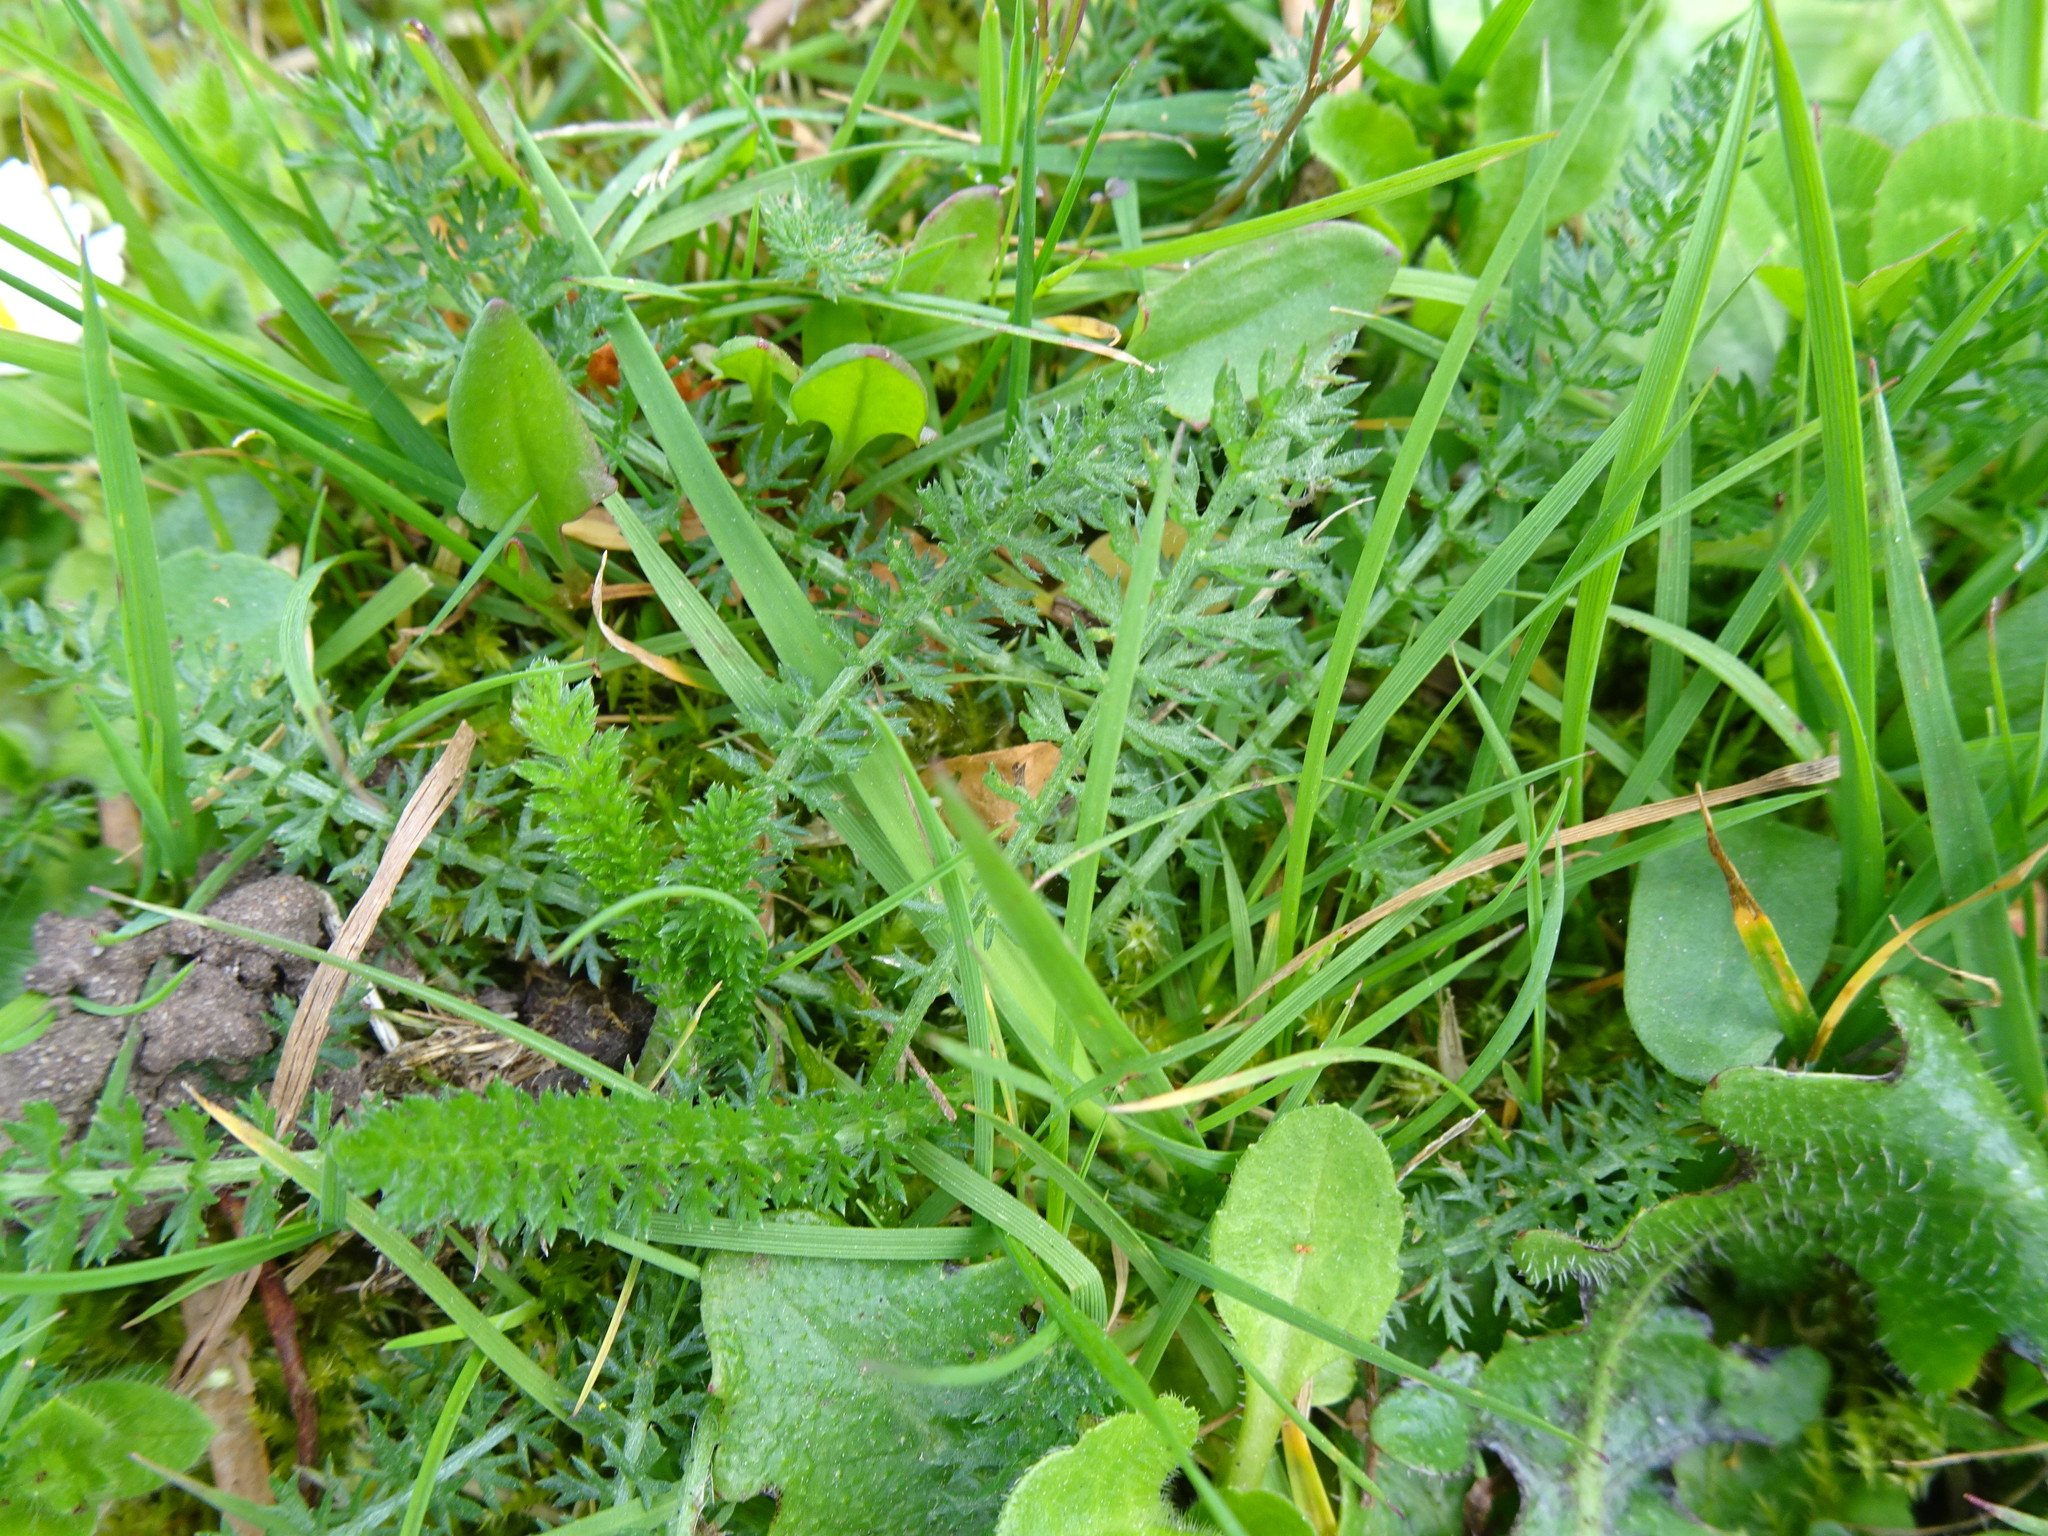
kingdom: Plantae
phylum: Tracheophyta
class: Magnoliopsida
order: Asterales
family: Asteraceae
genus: Achillea
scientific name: Achillea millefolium
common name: Yarrow
